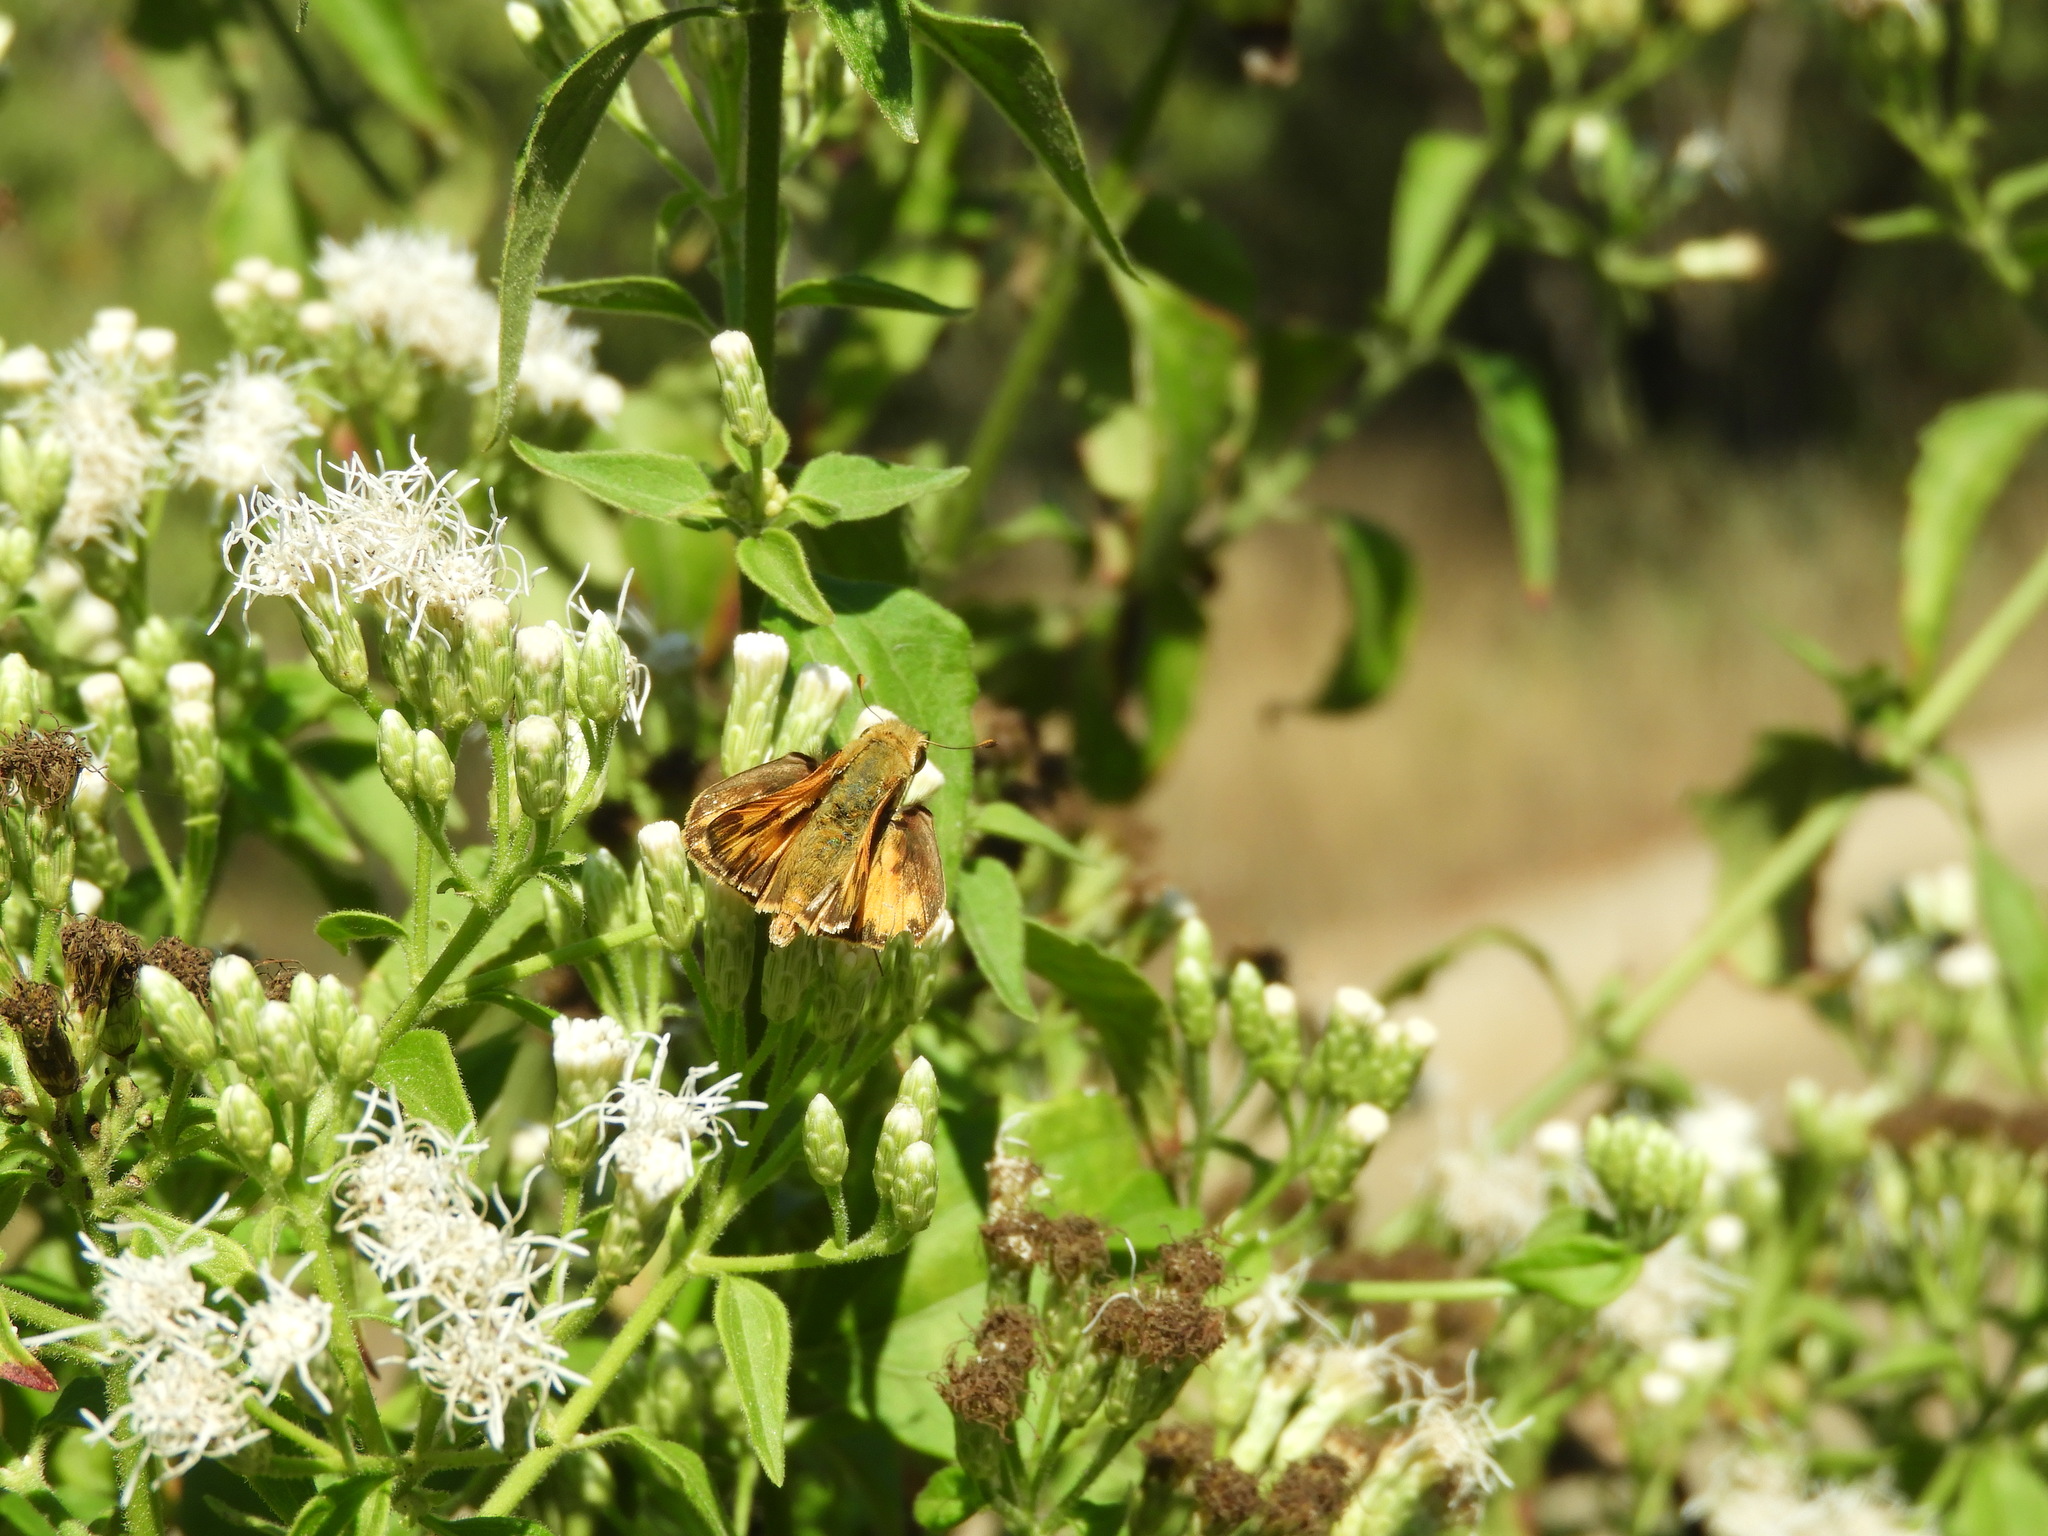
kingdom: Animalia
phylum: Arthropoda
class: Insecta
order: Lepidoptera
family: Hesperiidae
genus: Hylephila
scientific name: Hylephila phyleus
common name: Fiery skipper
